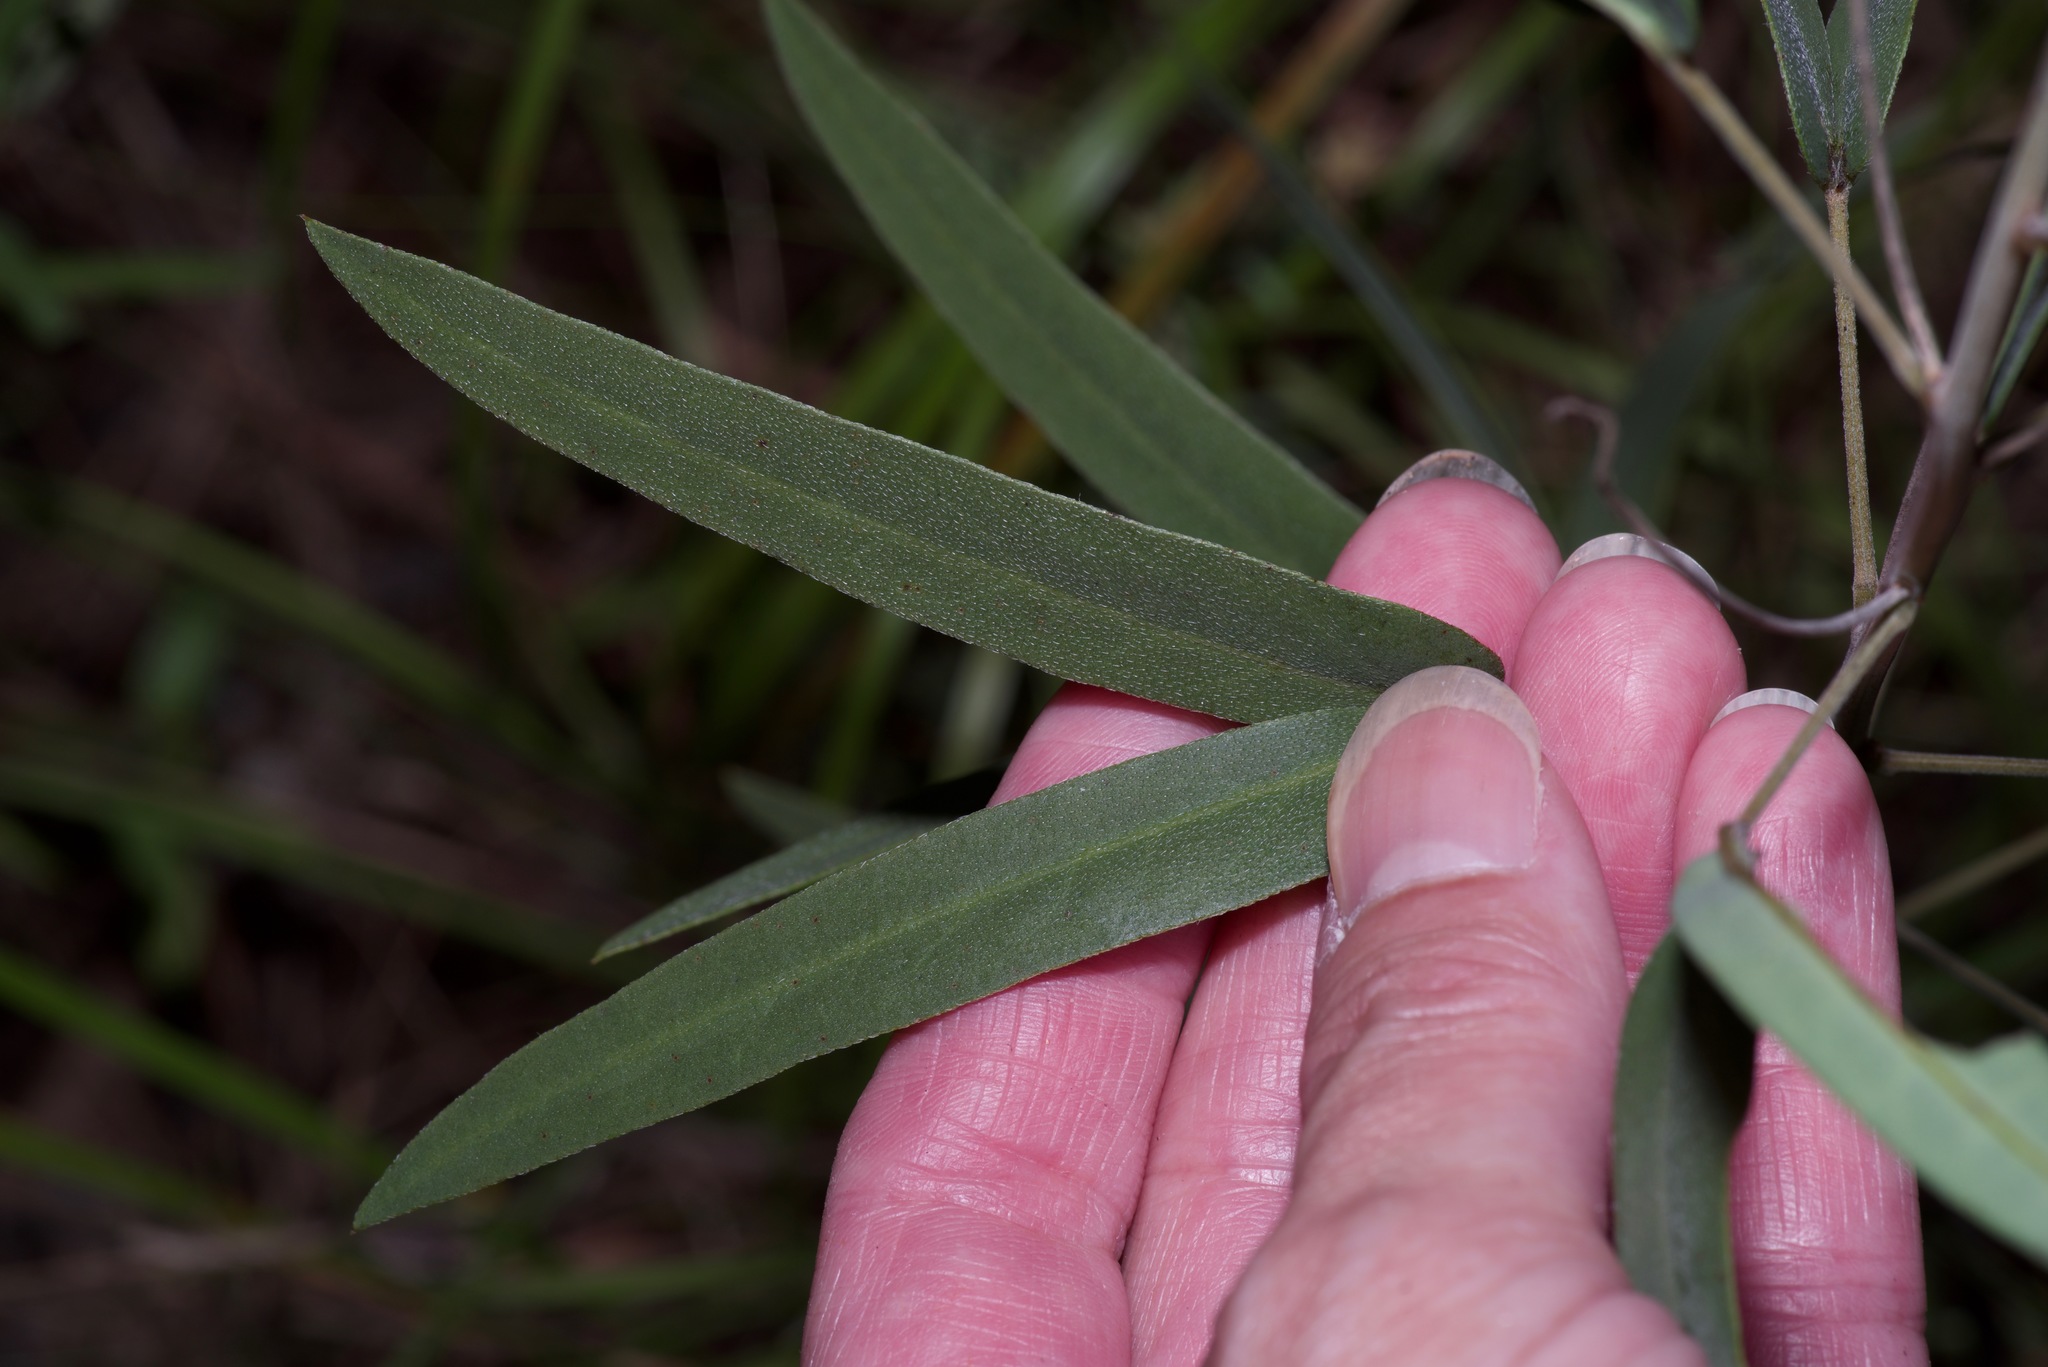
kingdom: Plantae
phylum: Tracheophyta
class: Magnoliopsida
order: Fabales
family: Fabaceae
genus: Senna
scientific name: Senna roemeriana
